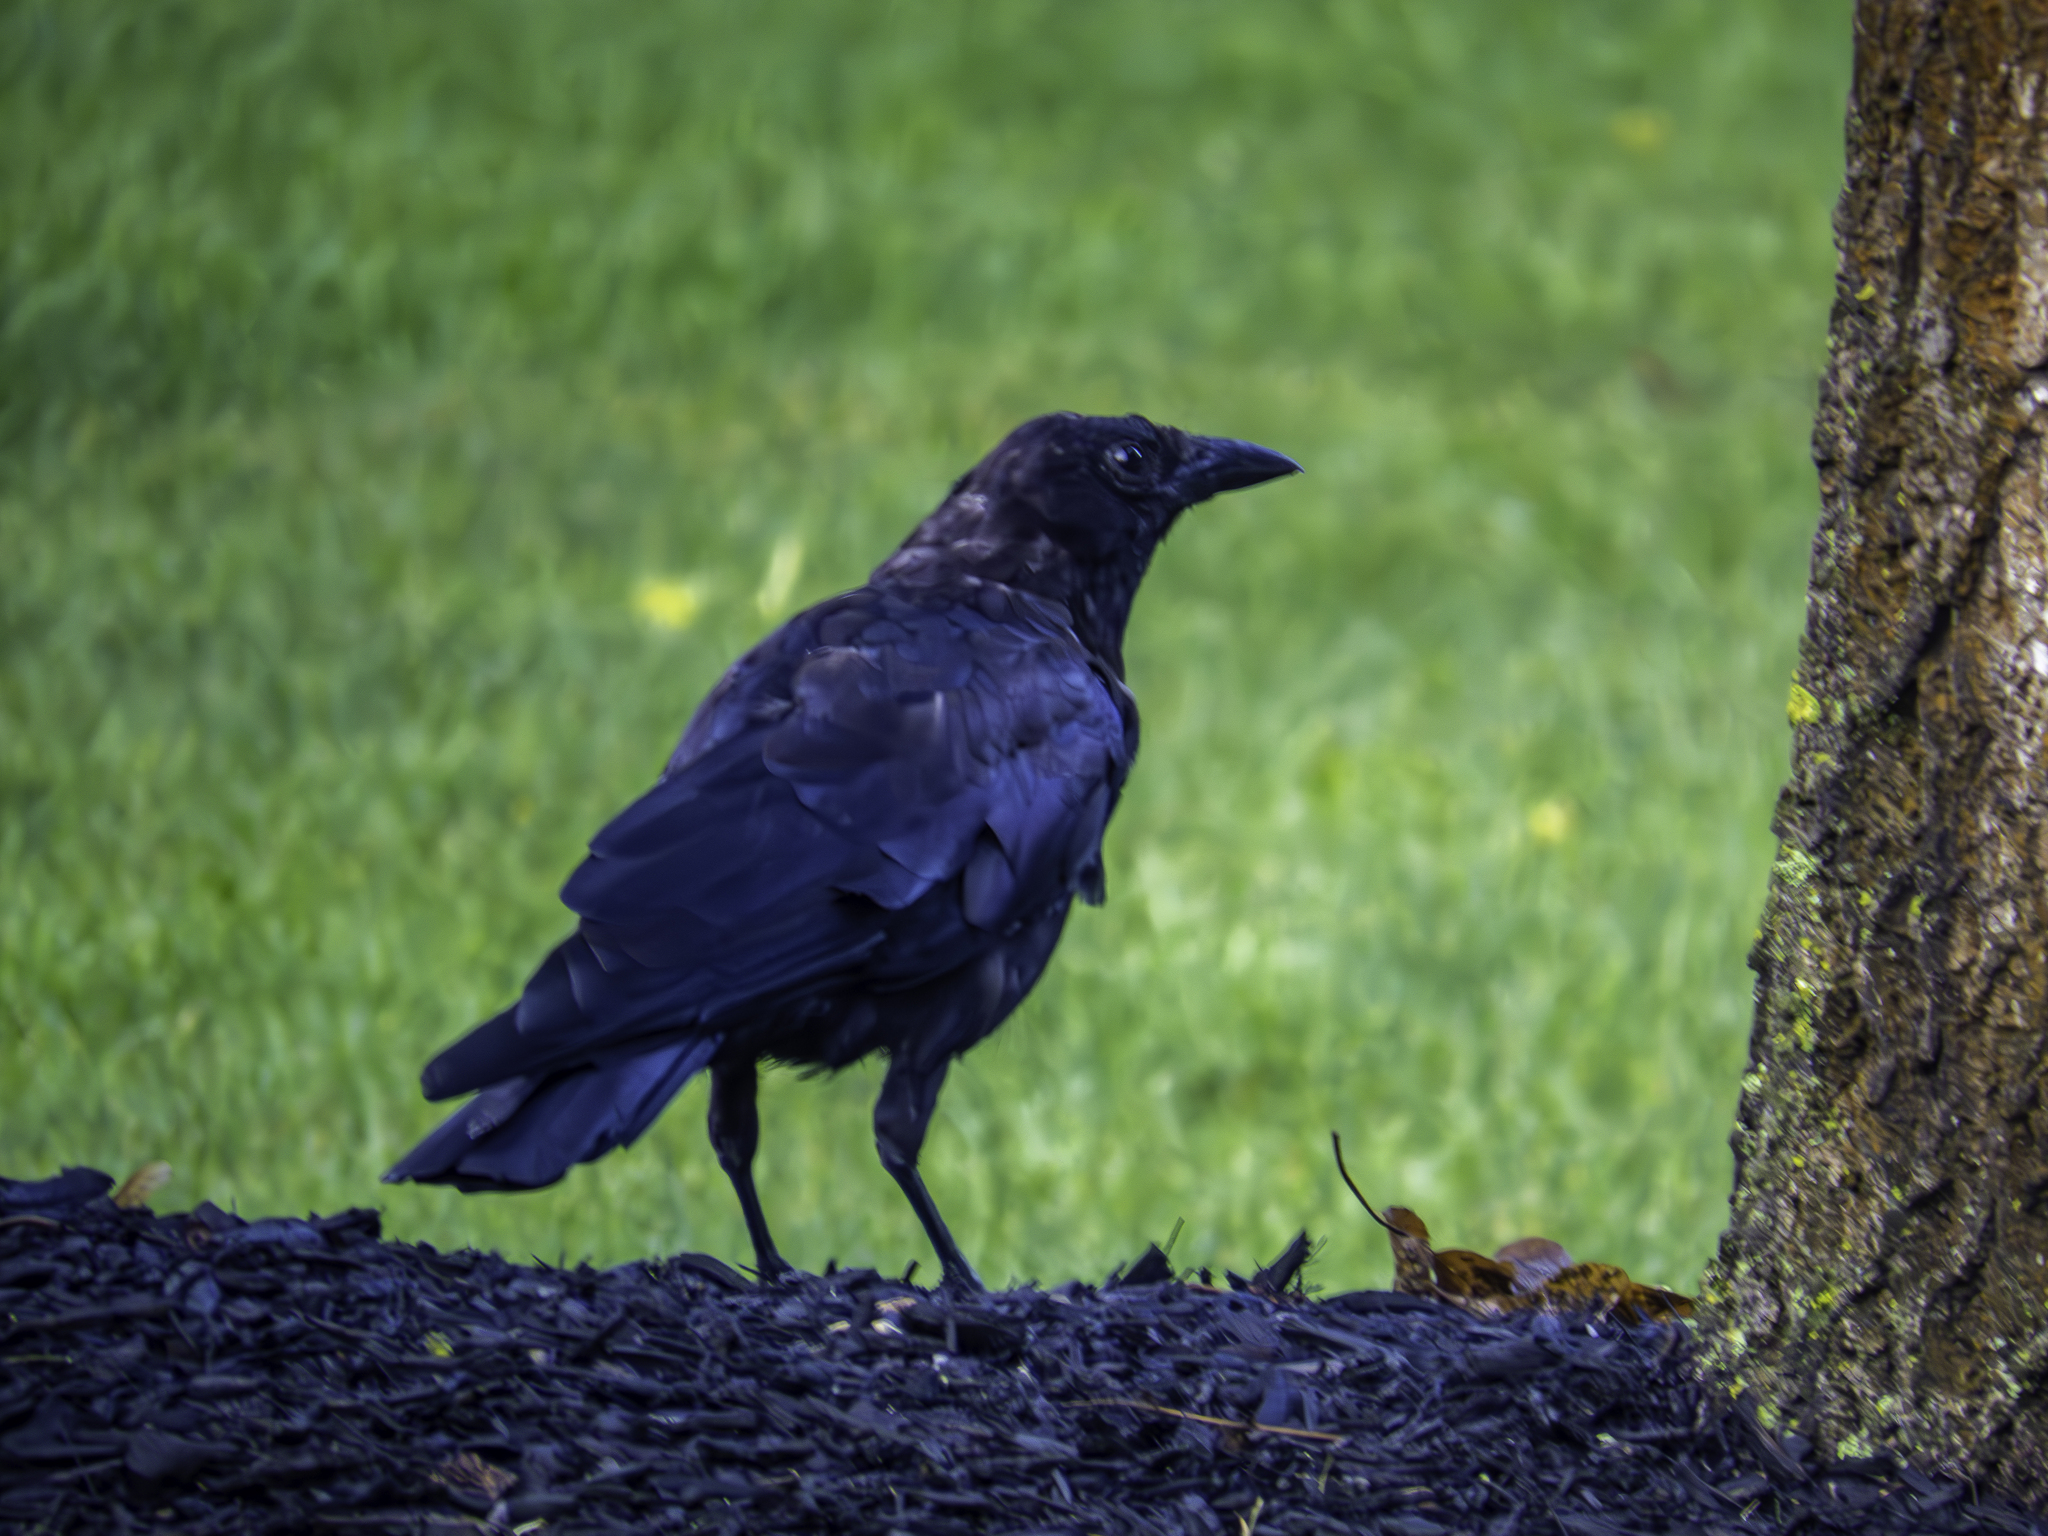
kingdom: Animalia
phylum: Chordata
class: Aves
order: Passeriformes
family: Corvidae
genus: Corvus
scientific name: Corvus brachyrhynchos
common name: American crow
